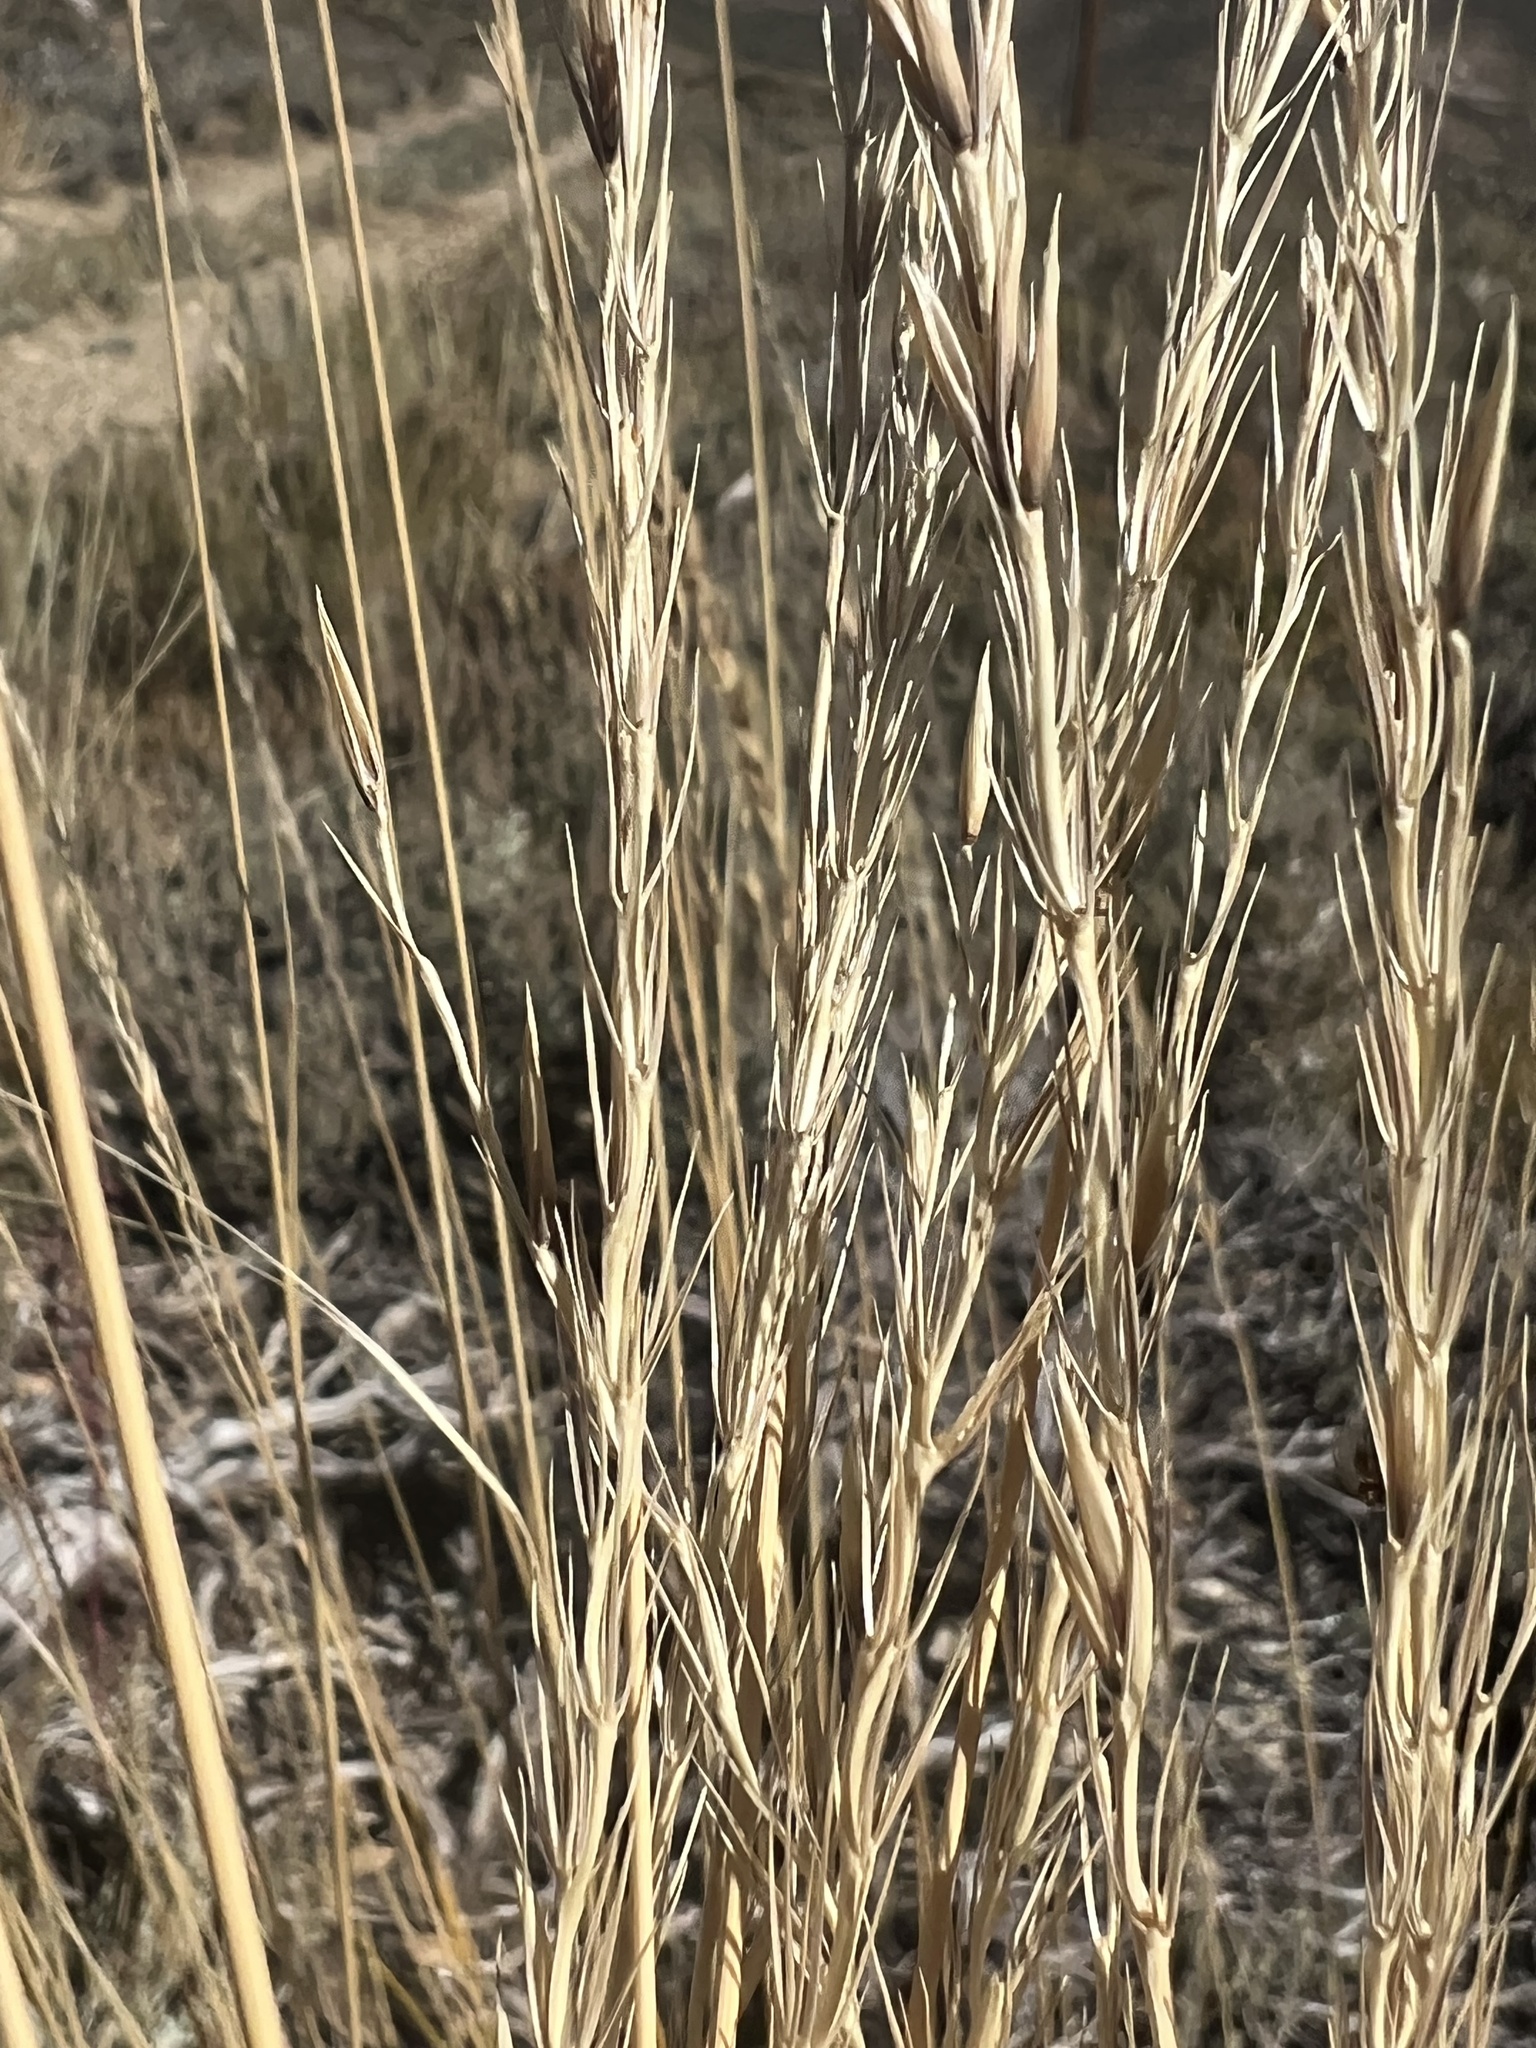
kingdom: Plantae
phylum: Tracheophyta
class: Liliopsida
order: Poales
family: Poaceae
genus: Leymus
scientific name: Leymus cinereus
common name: Basin wild rye
